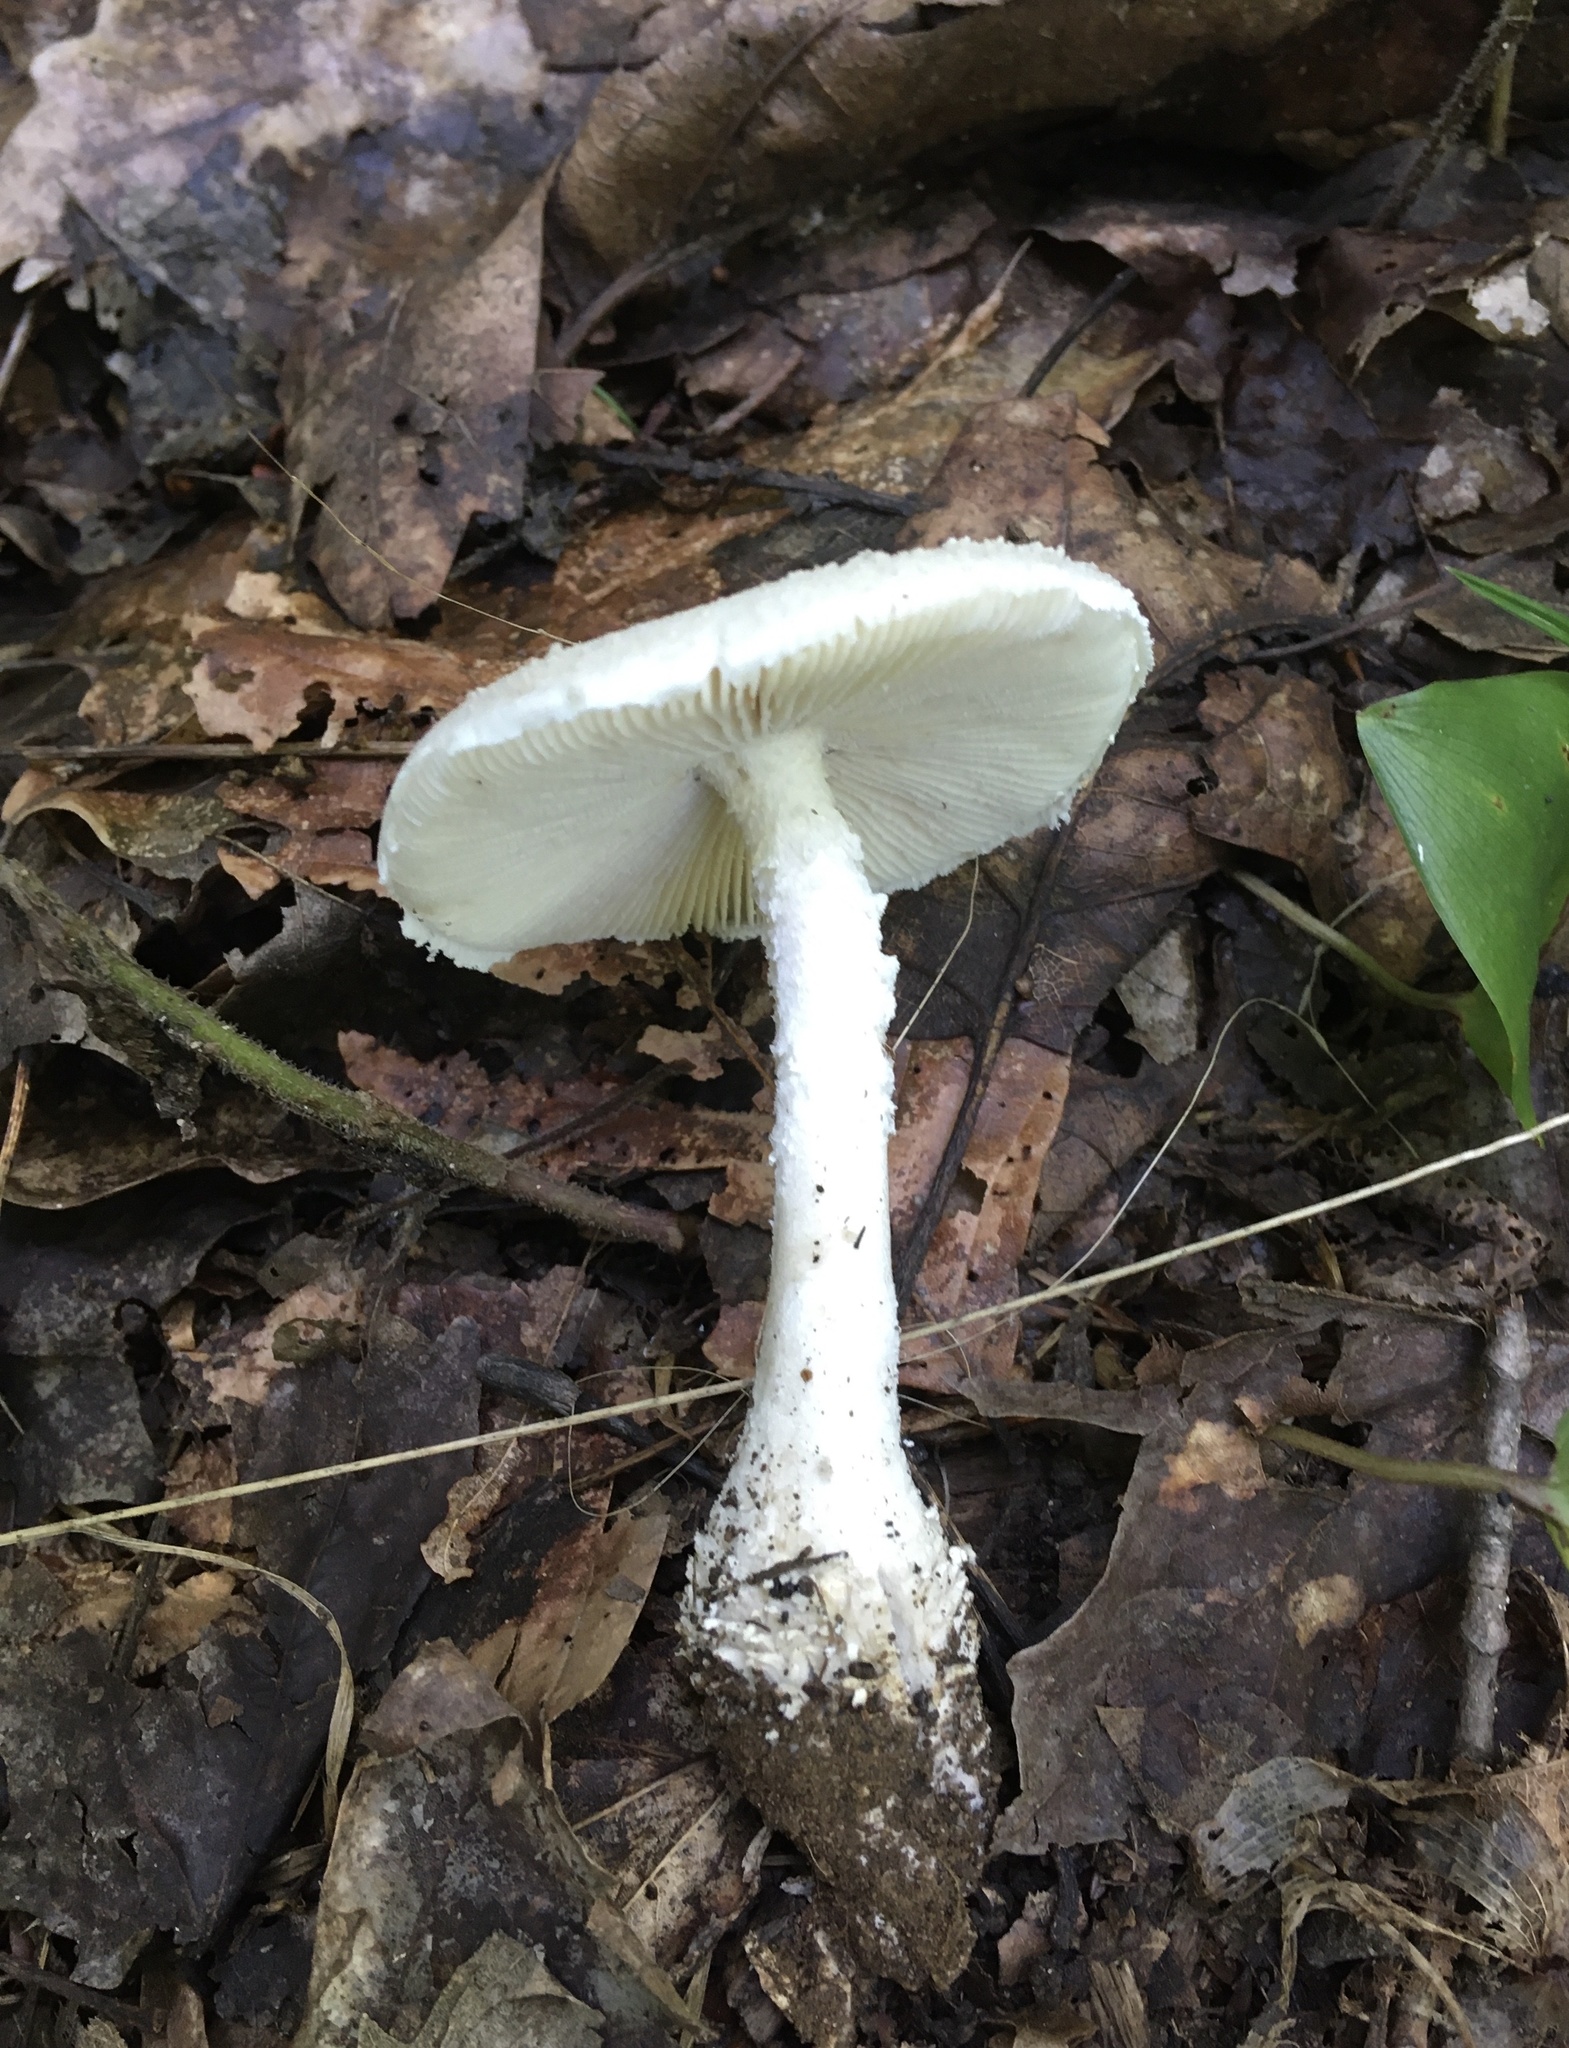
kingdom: Fungi
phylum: Basidiomycota
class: Agaricomycetes
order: Agaricales
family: Amanitaceae
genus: Amanita
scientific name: Amanita onusta
